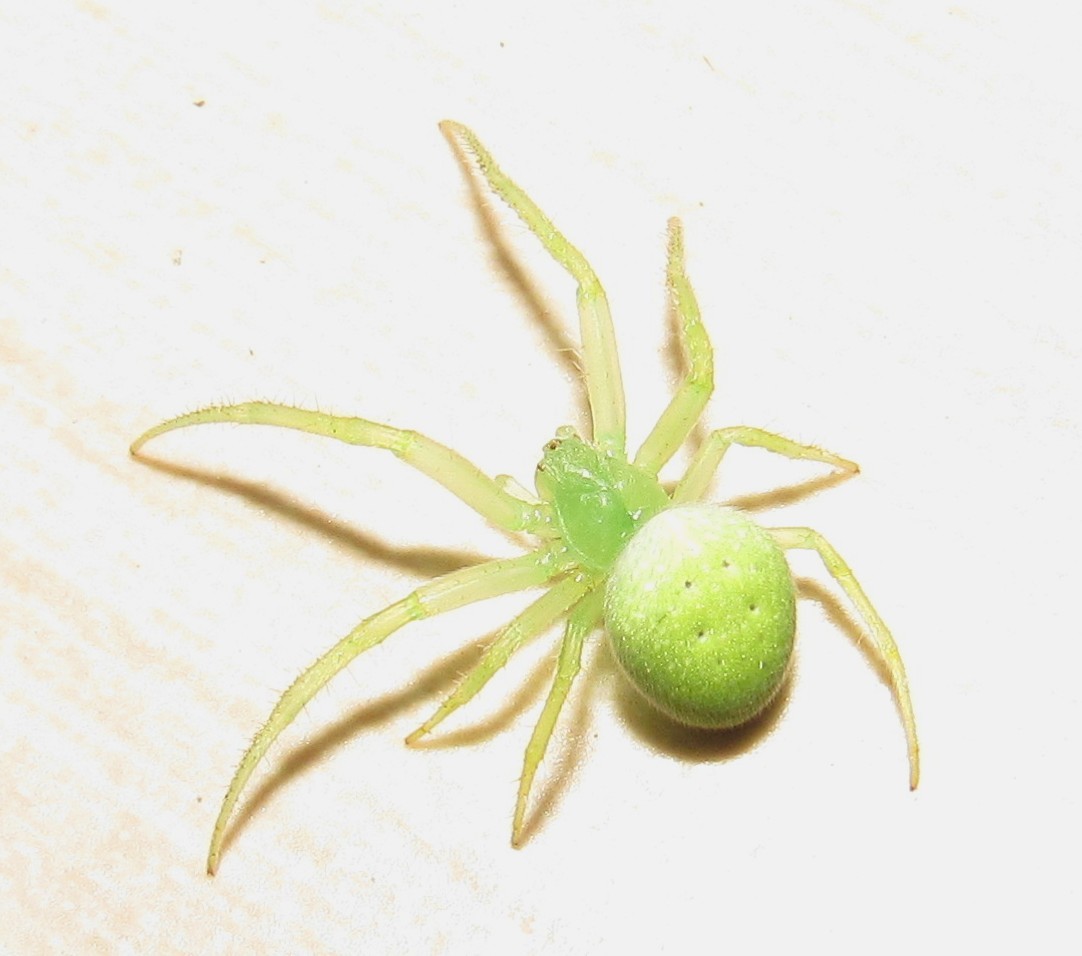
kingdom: Animalia
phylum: Arthropoda
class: Arachnida
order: Araneae
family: Araneidae
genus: Araneus
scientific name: Araneus uniformis
